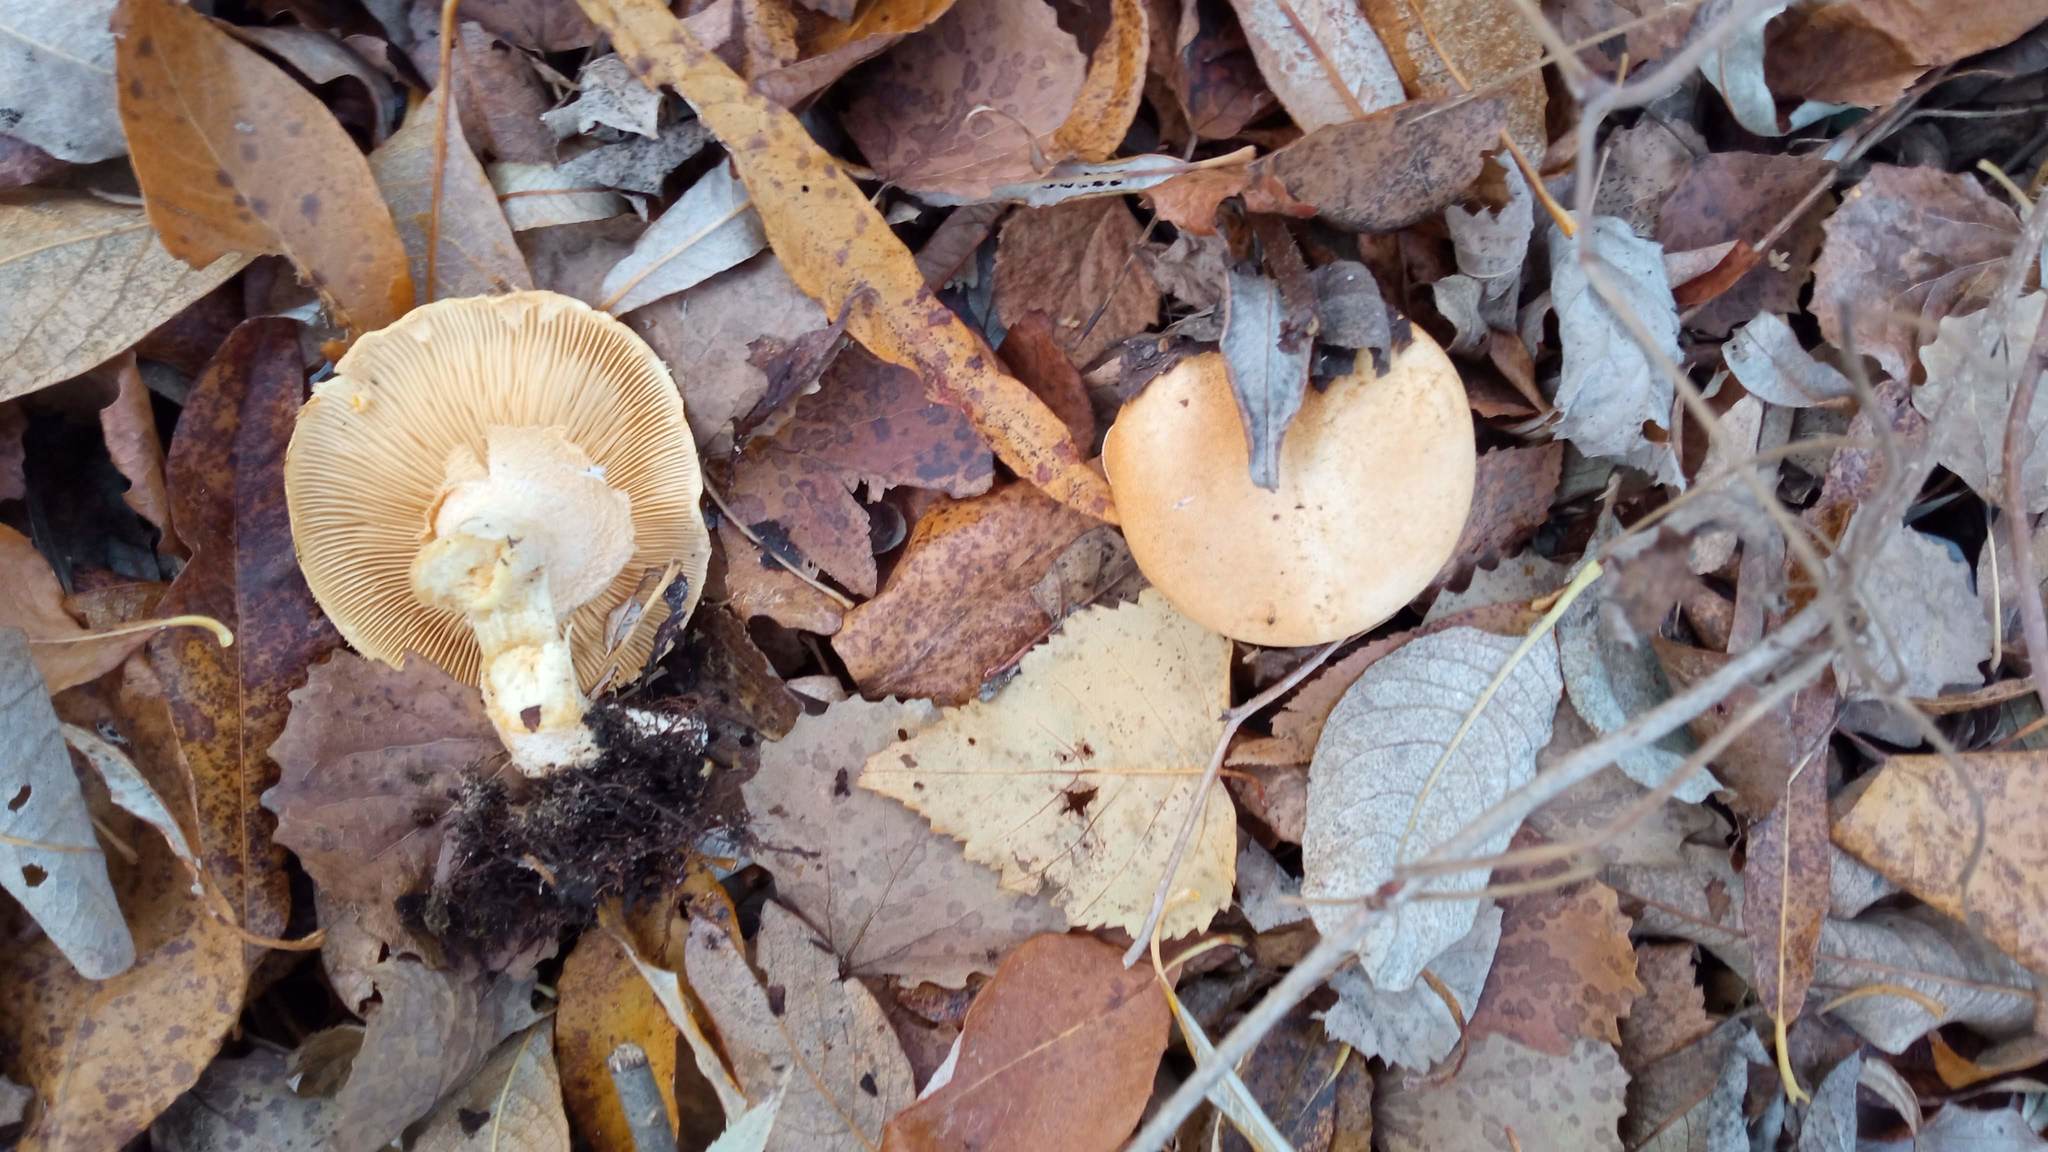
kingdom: Fungi
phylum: Basidiomycota
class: Agaricomycetes
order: Agaricales
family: Tricholomataceae
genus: Phaeolepiota
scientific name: Phaeolepiota aurea
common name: Golden bootleg
